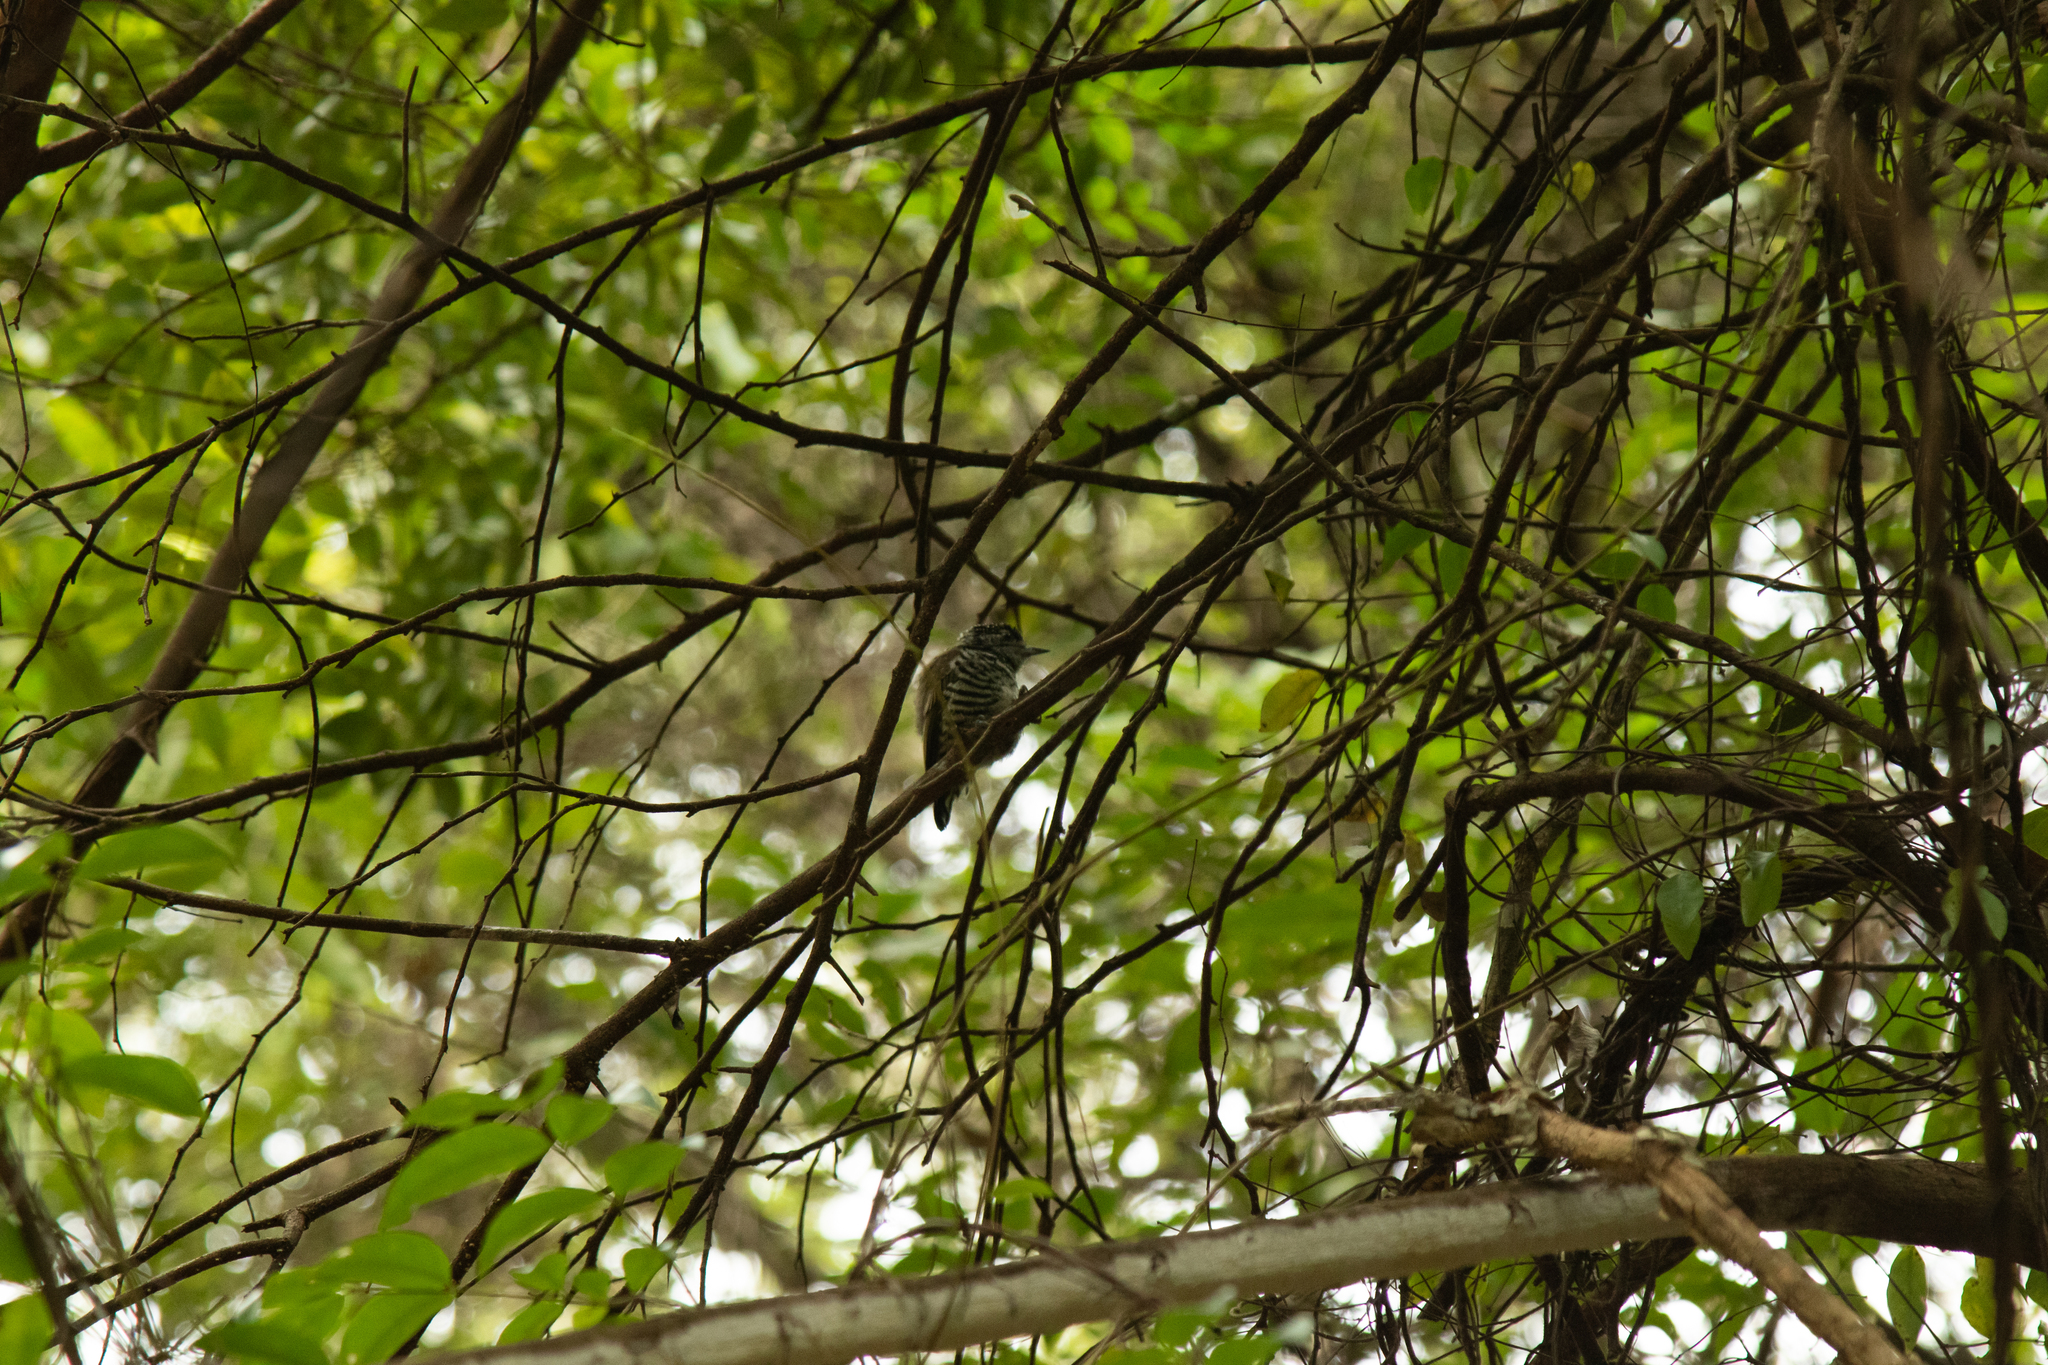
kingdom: Animalia
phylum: Chordata
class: Aves
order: Piciformes
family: Picidae
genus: Picumnus
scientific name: Picumnus cirratus
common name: White-barred piculet
